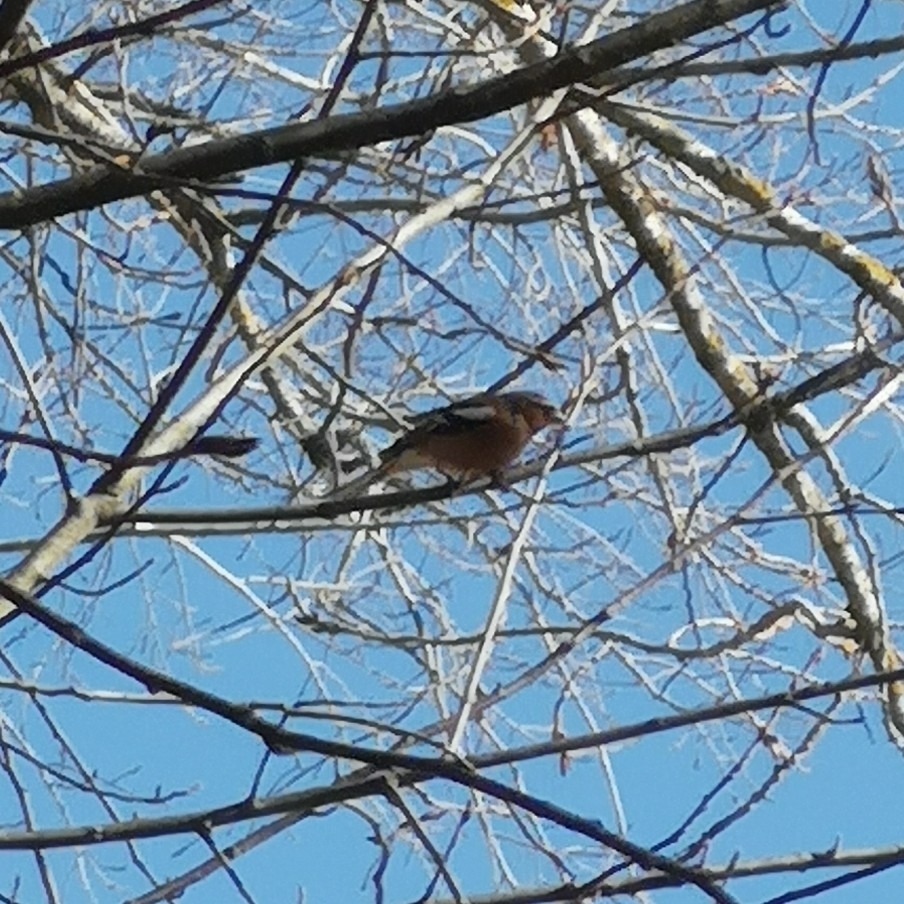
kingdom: Animalia
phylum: Chordata
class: Aves
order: Passeriformes
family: Fringillidae
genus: Fringilla
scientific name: Fringilla coelebs
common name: Common chaffinch
